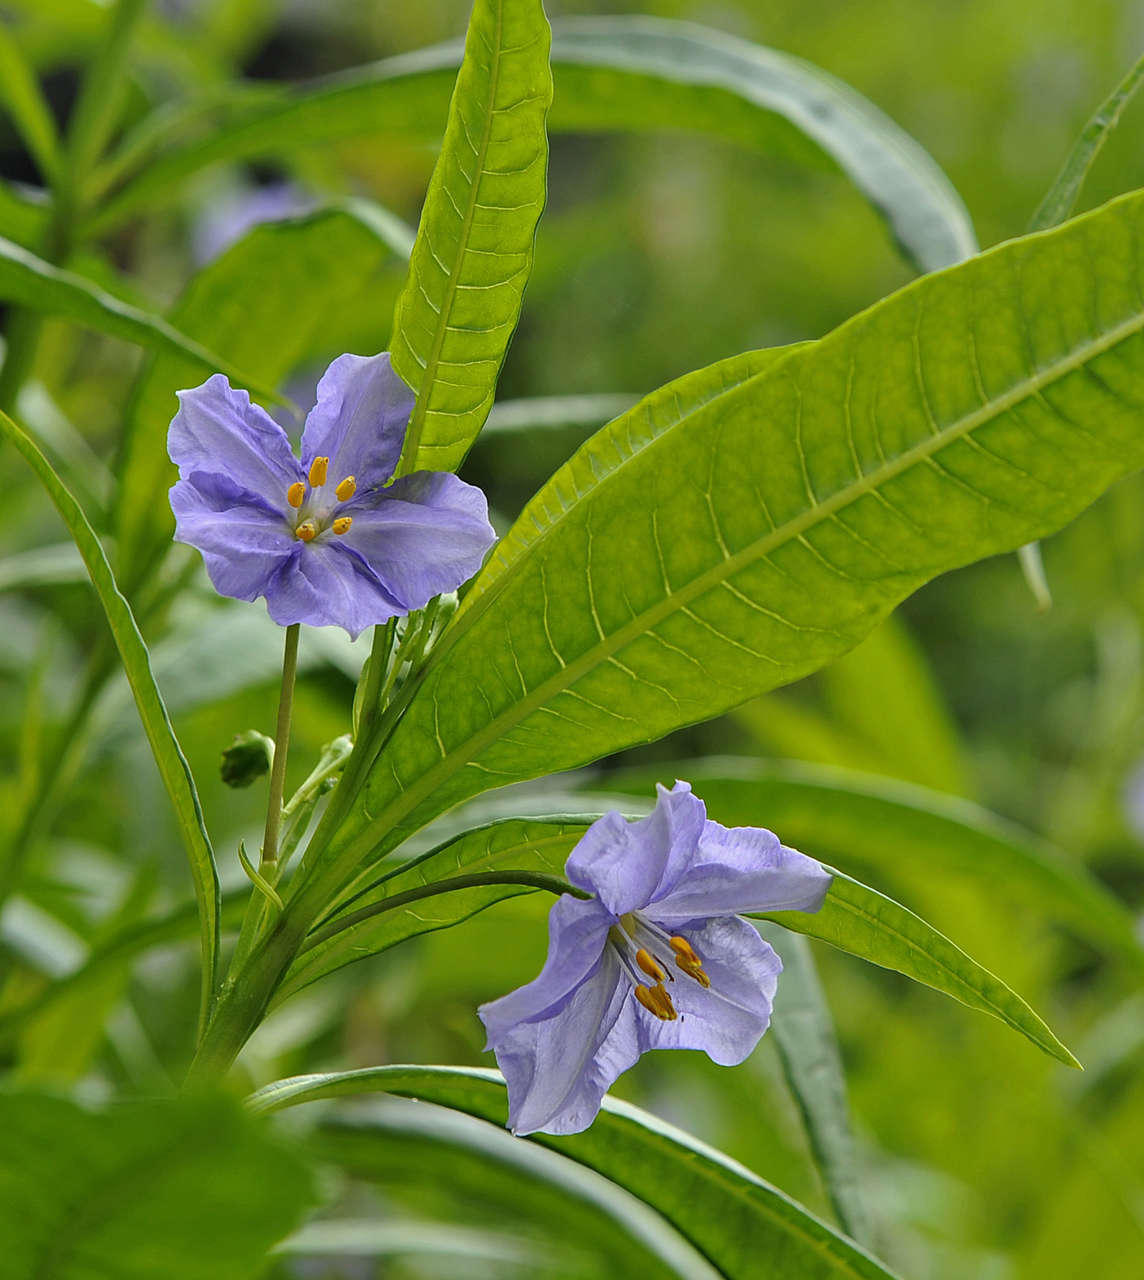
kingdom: Plantae
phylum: Tracheophyta
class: Magnoliopsida
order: Solanales
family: Solanaceae
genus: Solanum
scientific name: Solanum vescum
